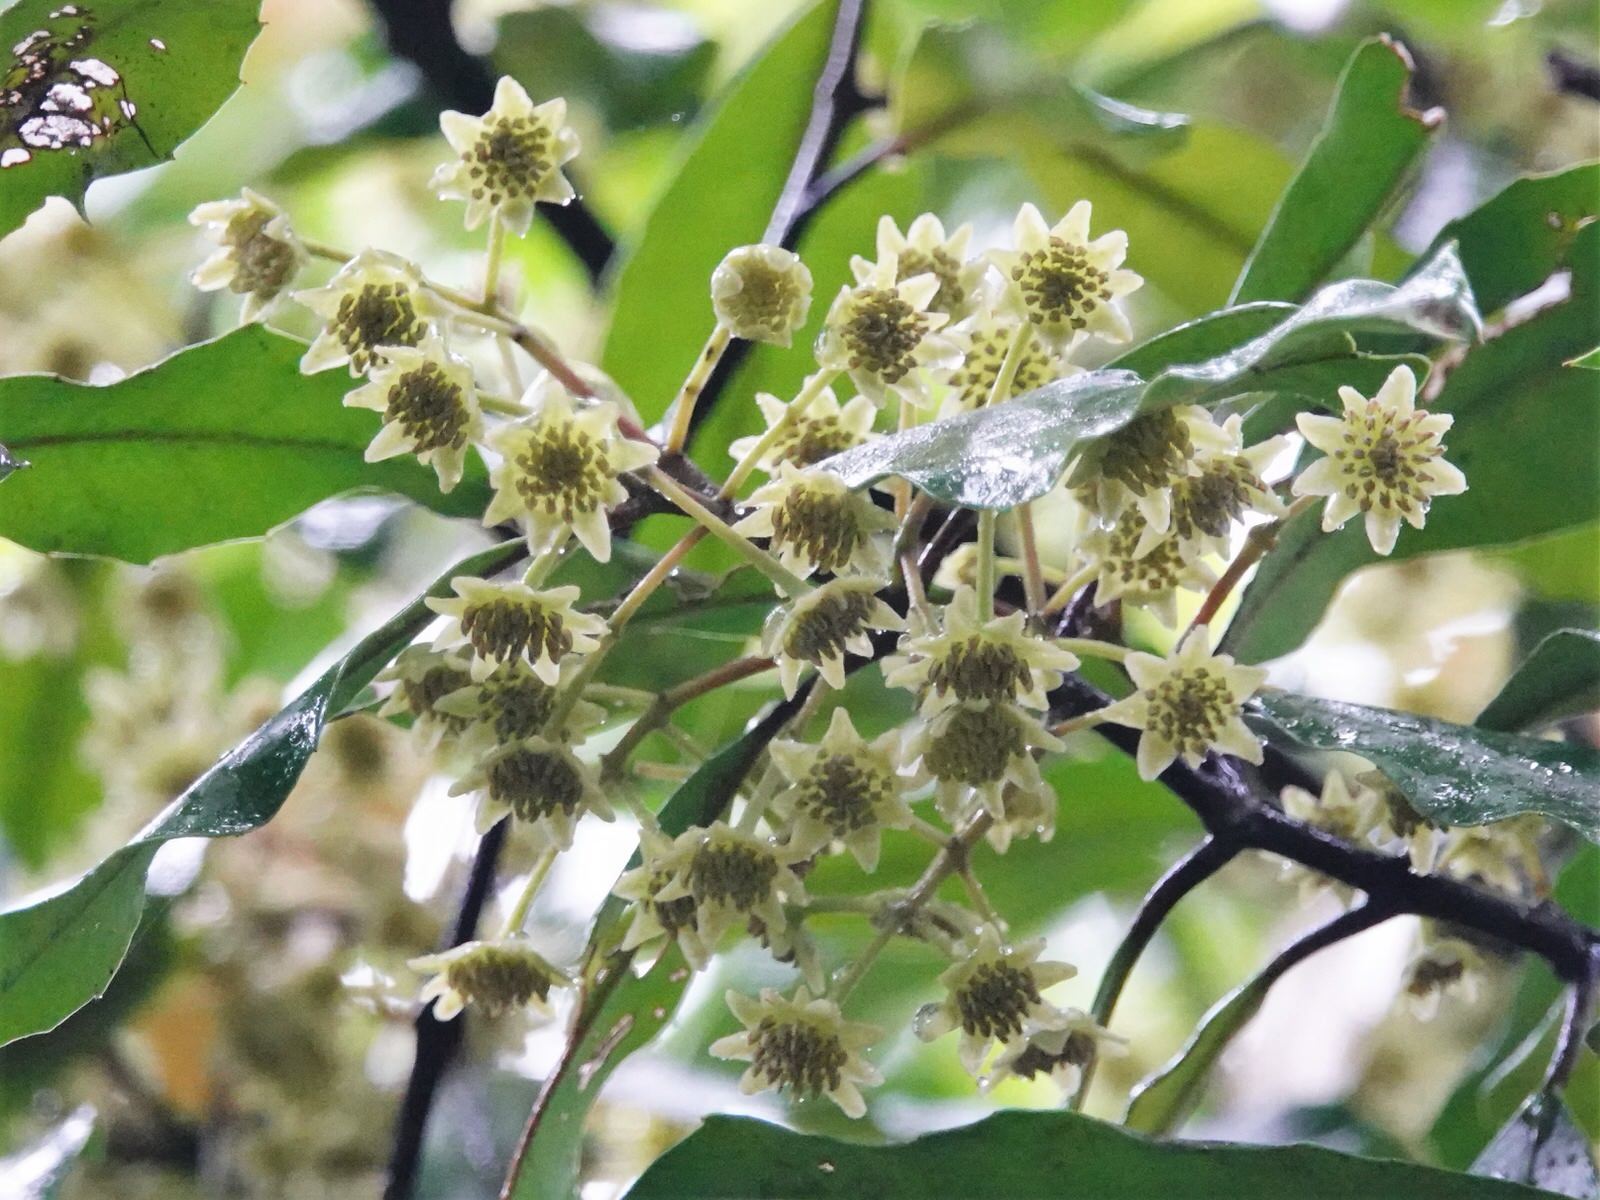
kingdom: Plantae
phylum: Tracheophyta
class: Magnoliopsida
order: Laurales
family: Monimiaceae
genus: Hedycarya
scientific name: Hedycarya arborea
